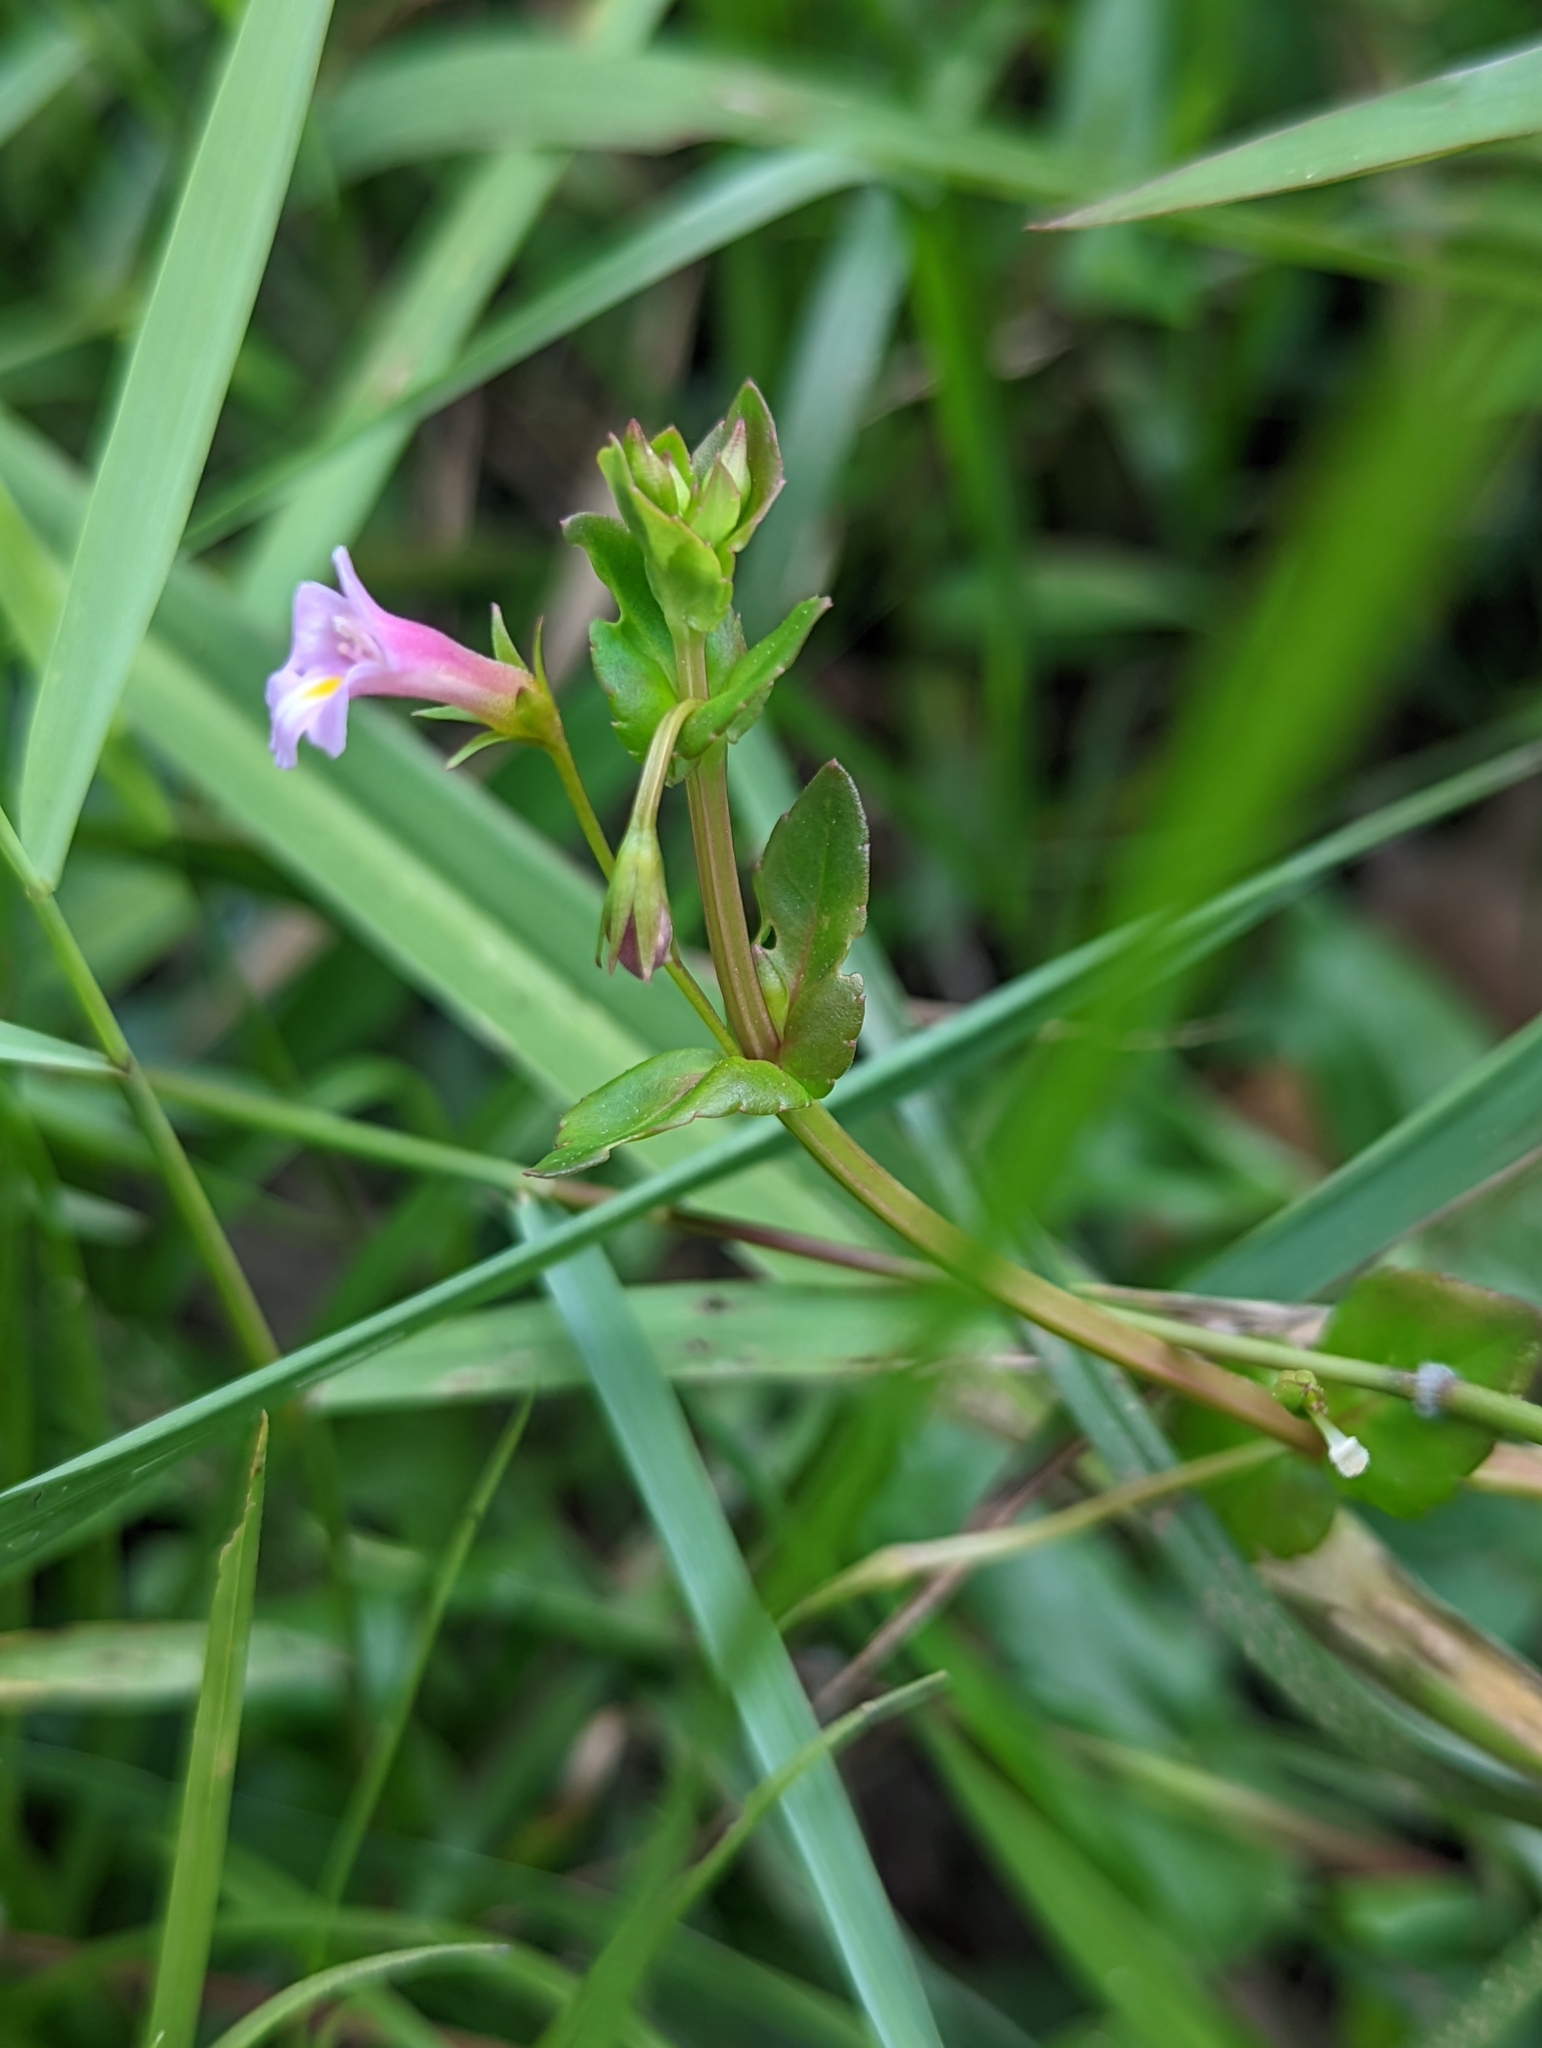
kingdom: Plantae
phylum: Tracheophyta
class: Magnoliopsida
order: Lamiales
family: Linderniaceae
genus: Torenia
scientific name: Torenia anagallis
